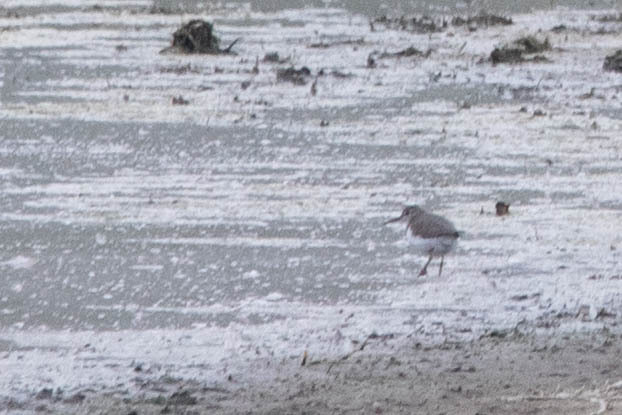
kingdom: Animalia
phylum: Chordata
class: Aves
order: Charadriiformes
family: Scolopacidae
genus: Actitis
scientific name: Actitis macularius
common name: Spotted sandpiper
